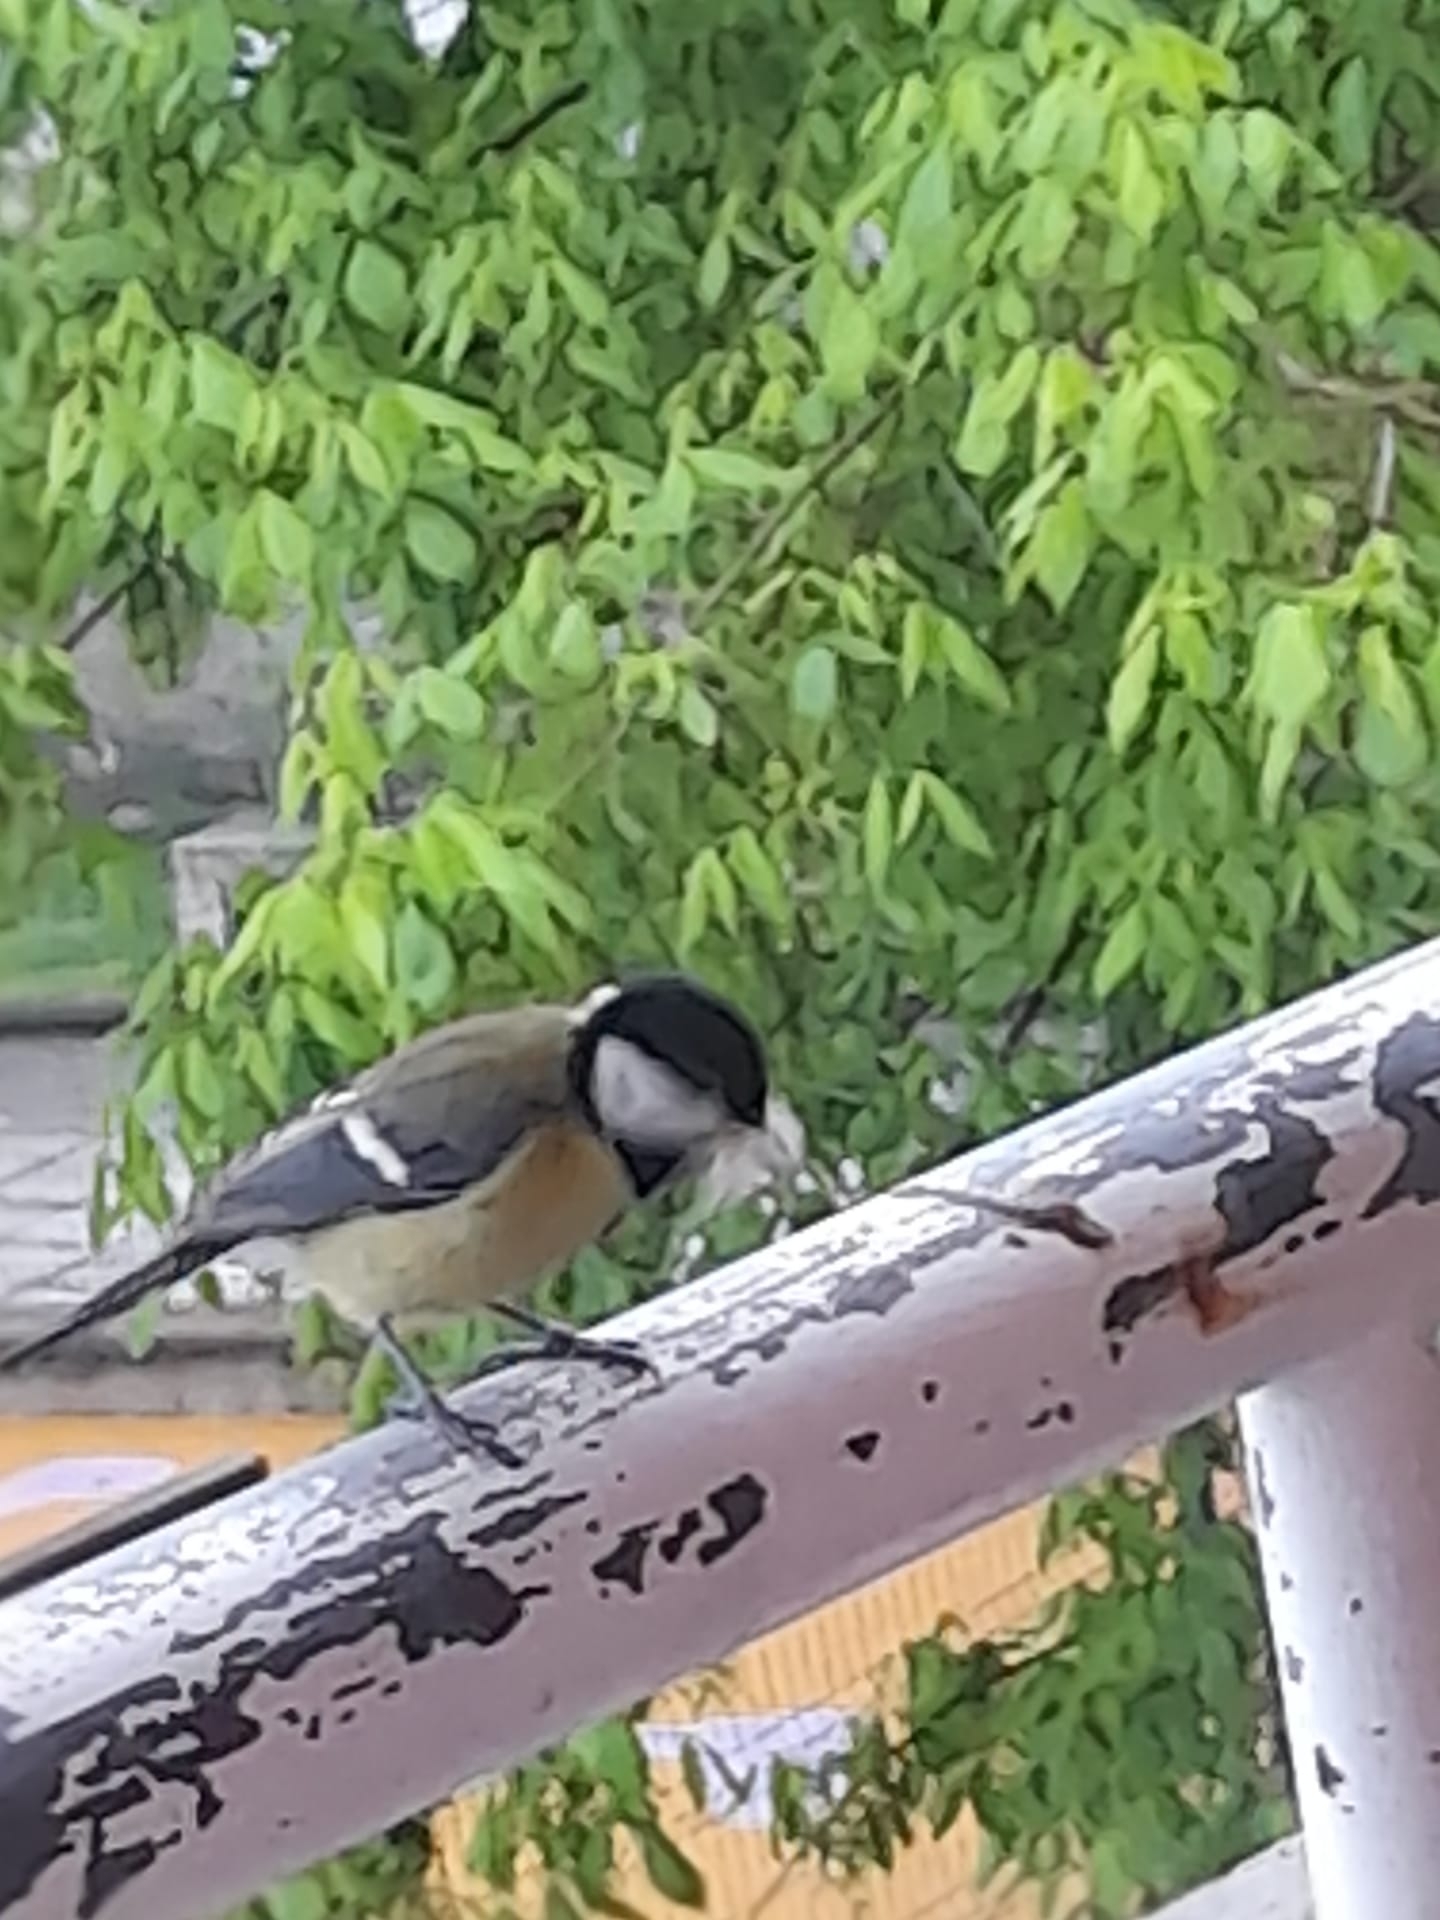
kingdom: Animalia
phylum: Chordata
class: Aves
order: Passeriformes
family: Paridae
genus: Parus
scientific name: Parus major
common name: Great tit
